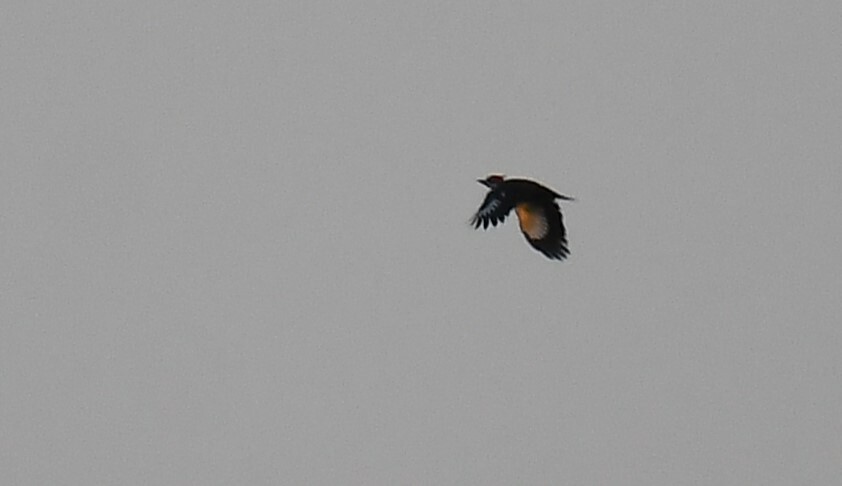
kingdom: Animalia
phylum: Chordata
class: Aves
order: Piciformes
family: Picidae
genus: Dryocopus
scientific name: Dryocopus pileatus
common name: Pileated woodpecker
